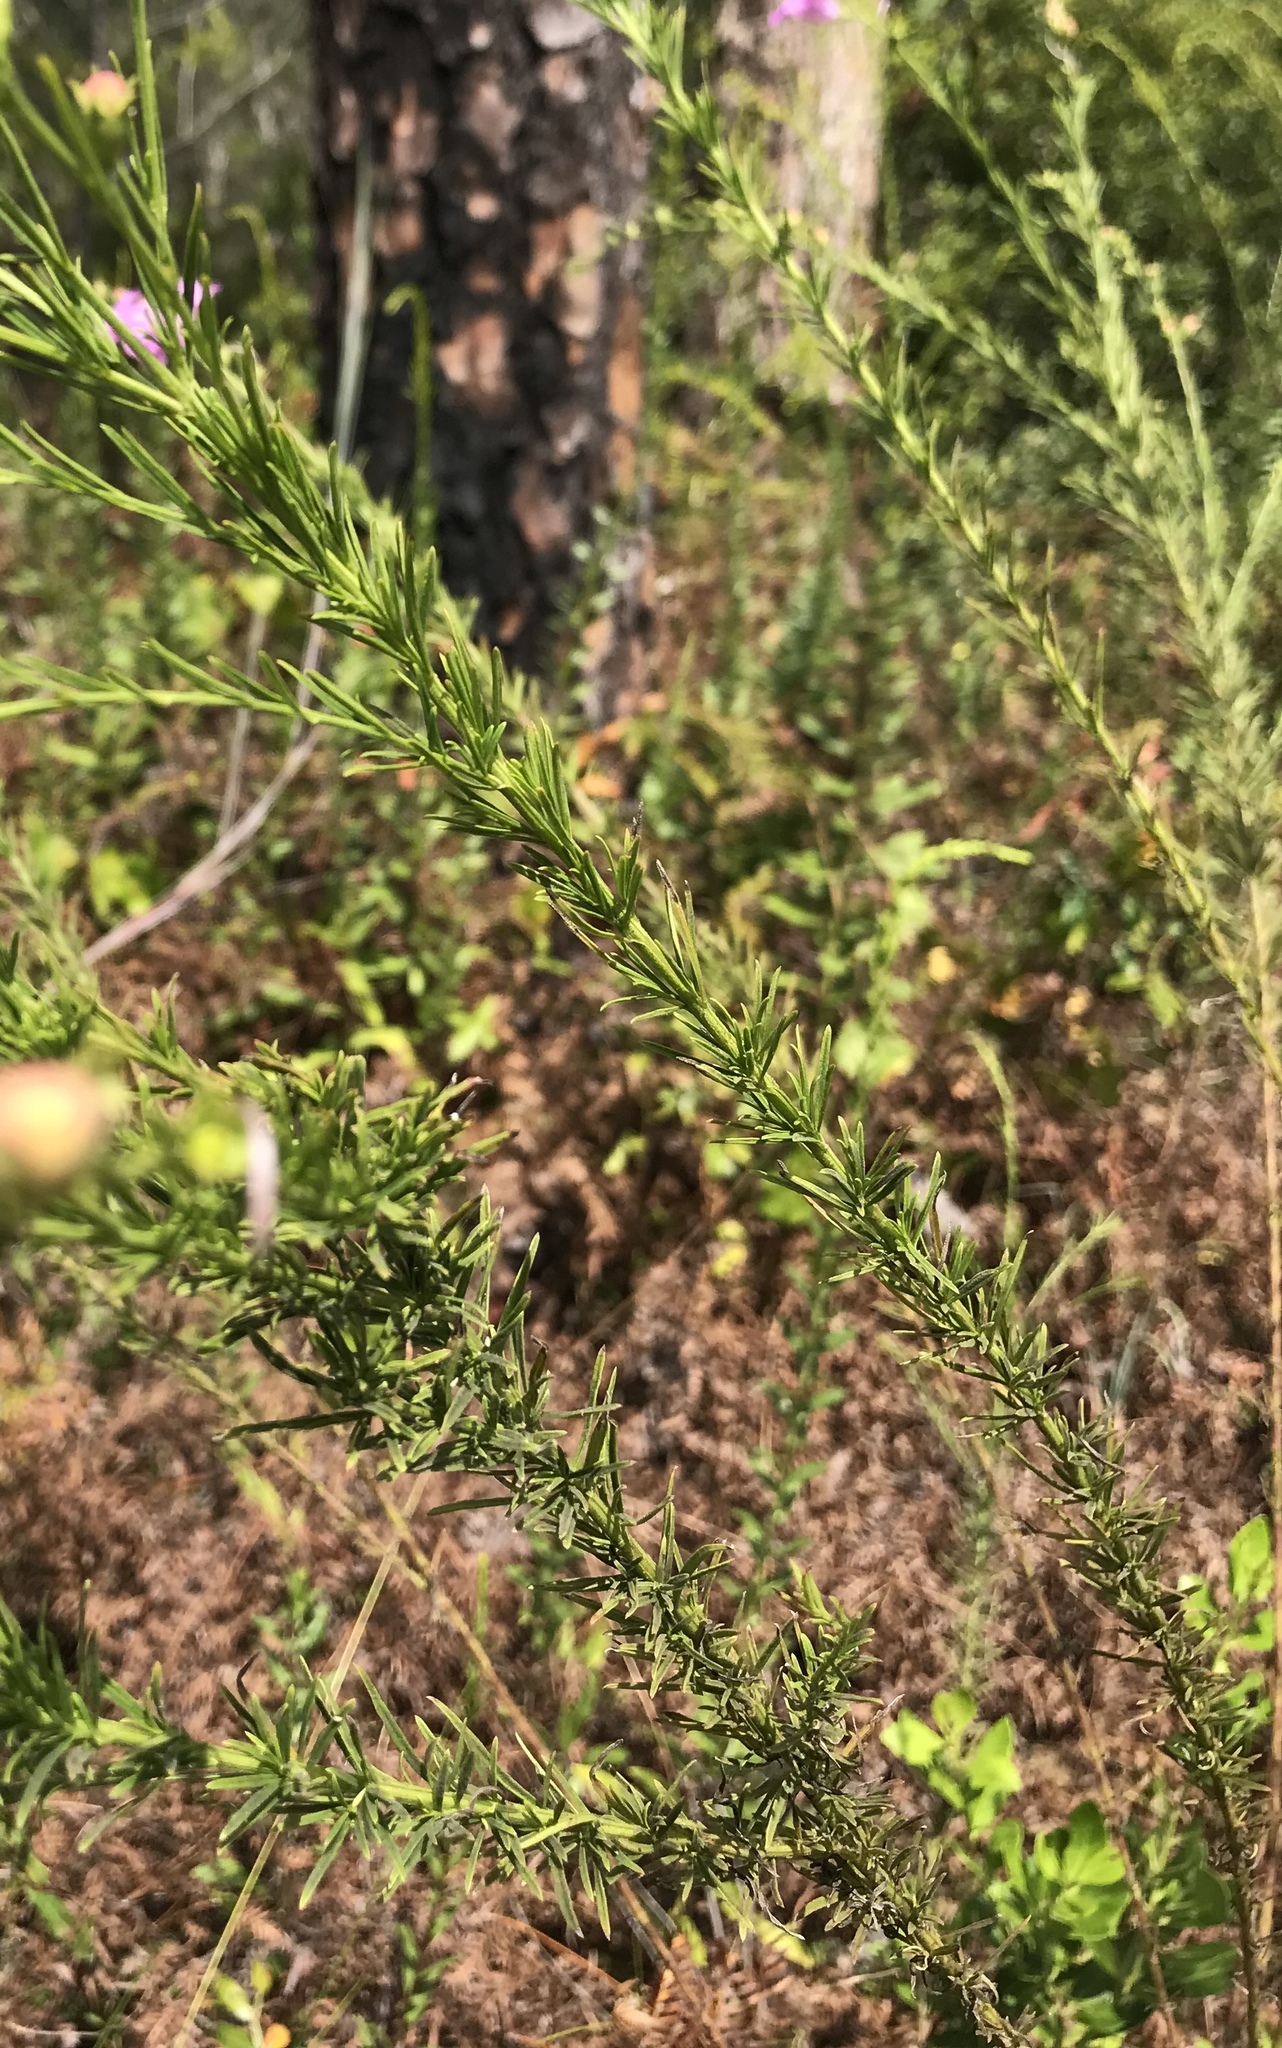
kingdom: Plantae
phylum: Tracheophyta
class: Magnoliopsida
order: Lamiales
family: Orobanchaceae
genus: Agalinis
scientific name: Agalinis fasciculata
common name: Beach false foxglove
